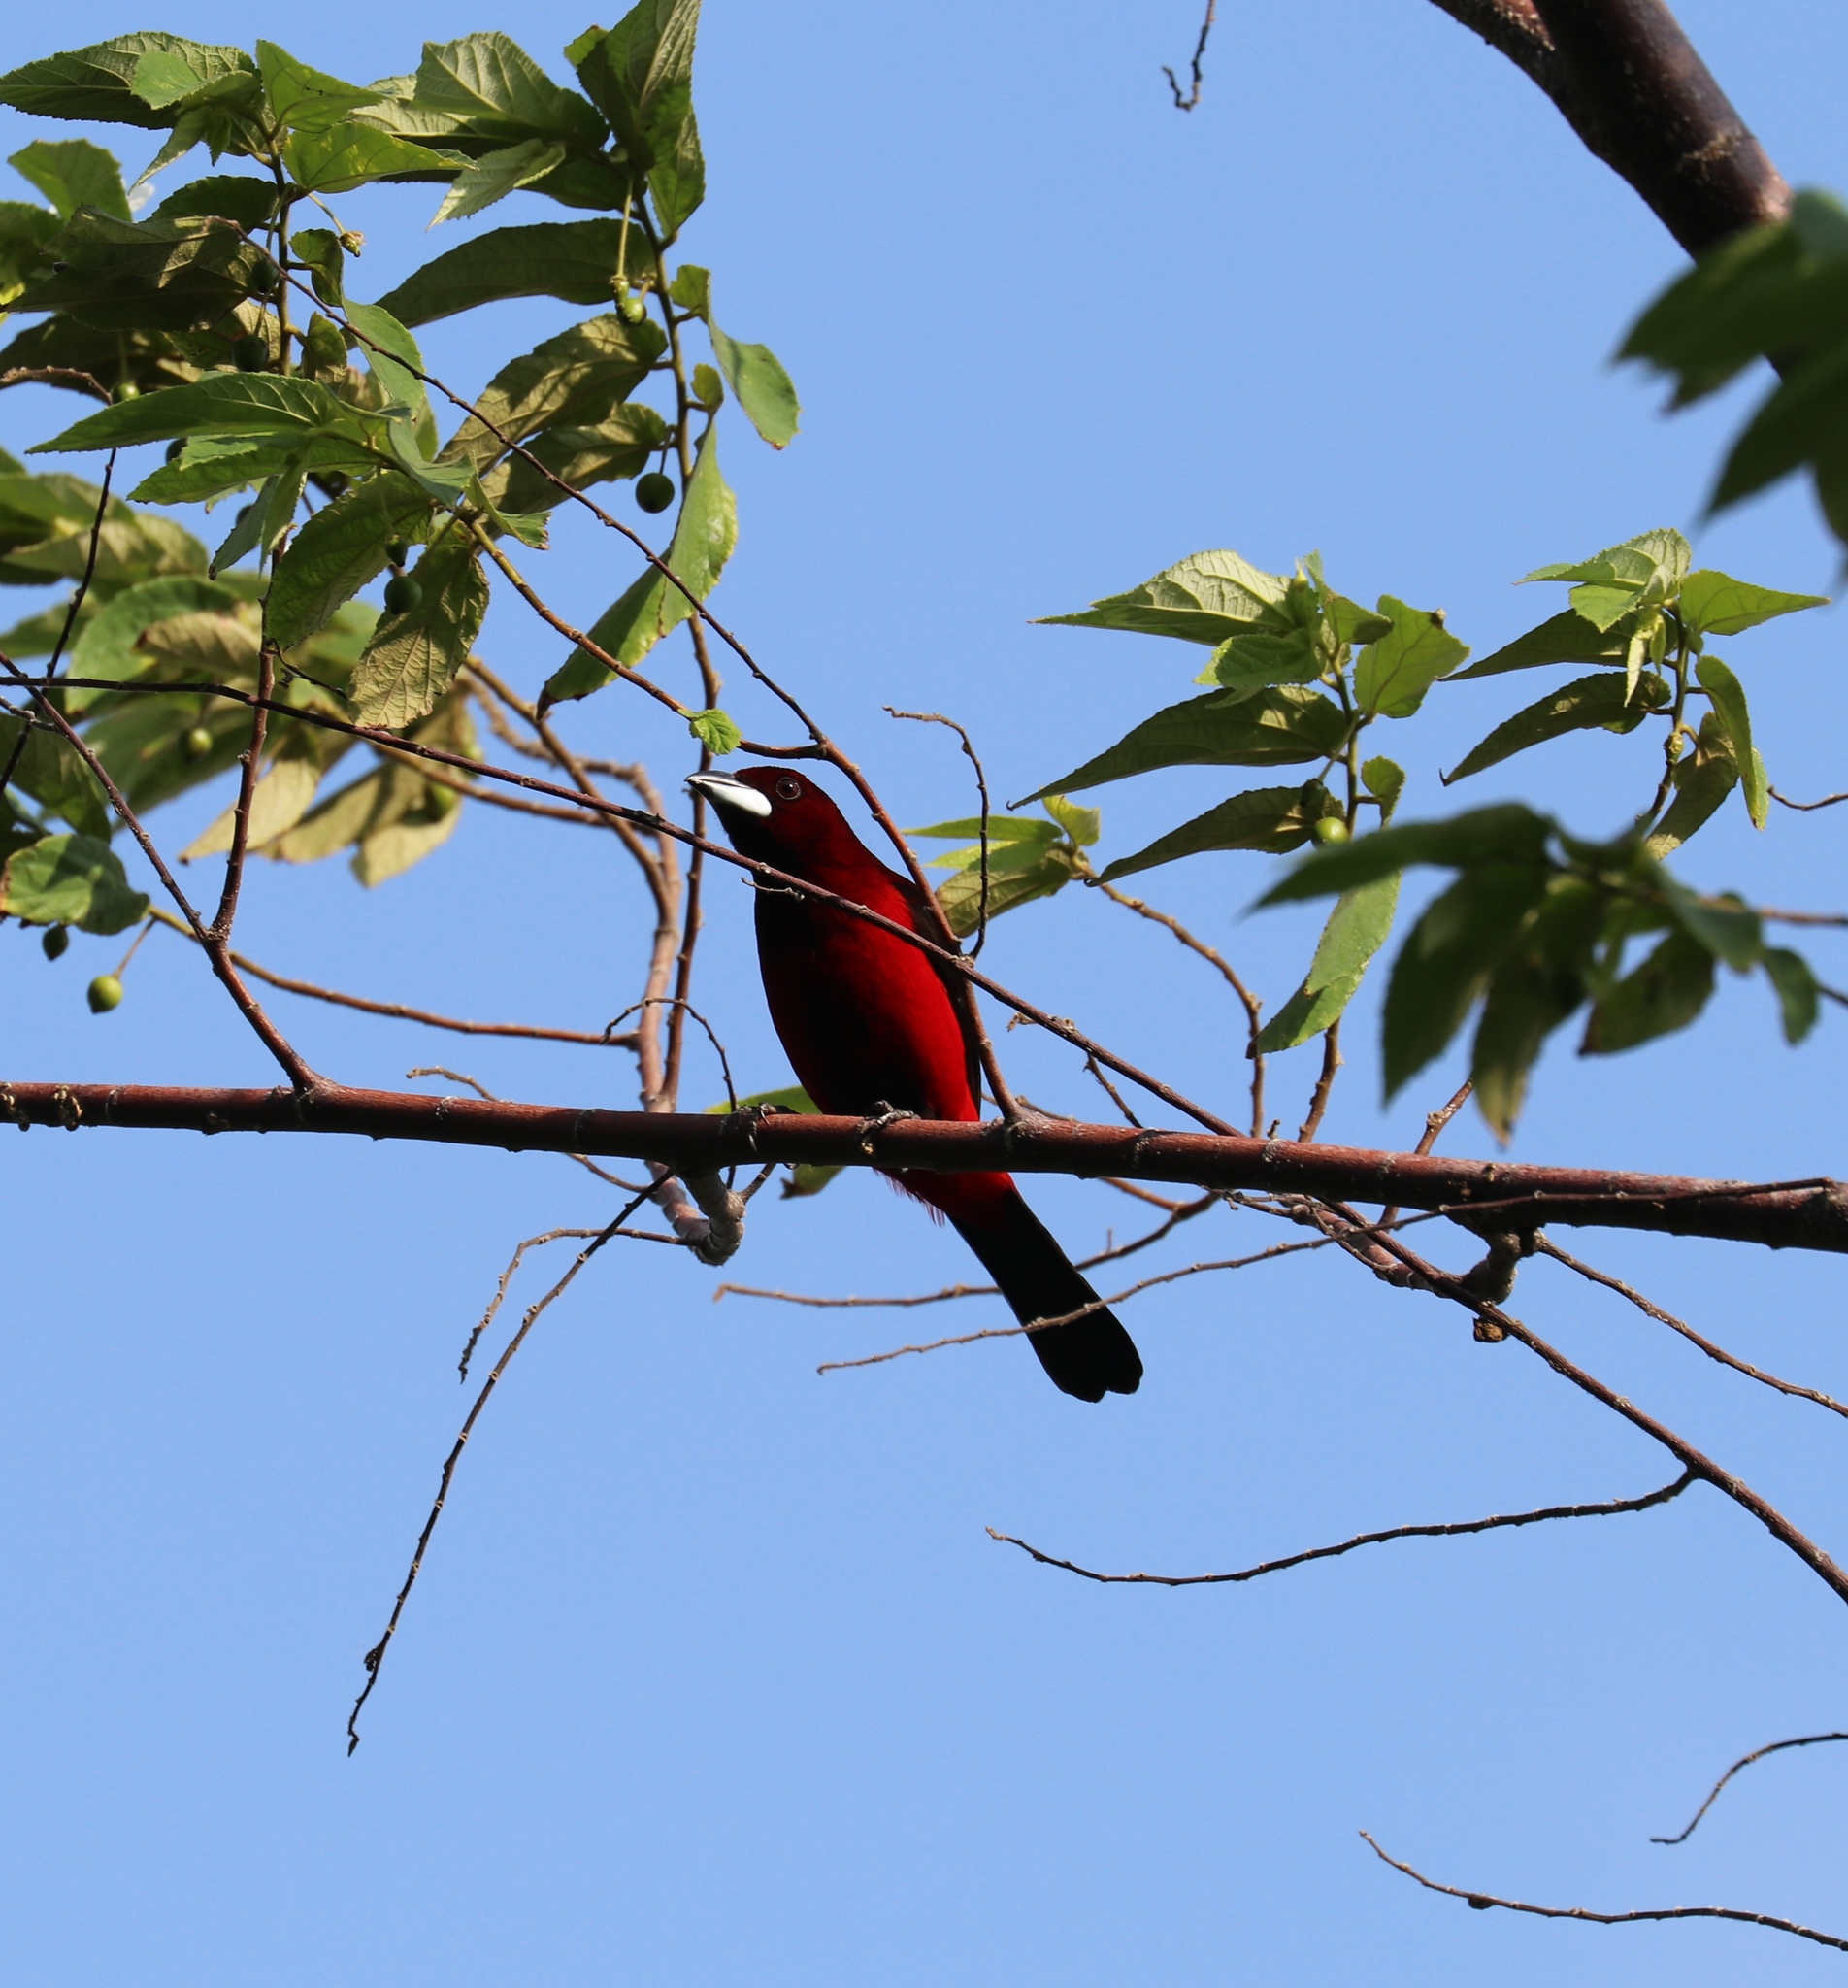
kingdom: Animalia
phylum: Chordata
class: Aves
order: Passeriformes
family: Thraupidae
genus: Ramphocelus
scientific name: Ramphocelus dimidiatus
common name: Crimson-backed tanager
